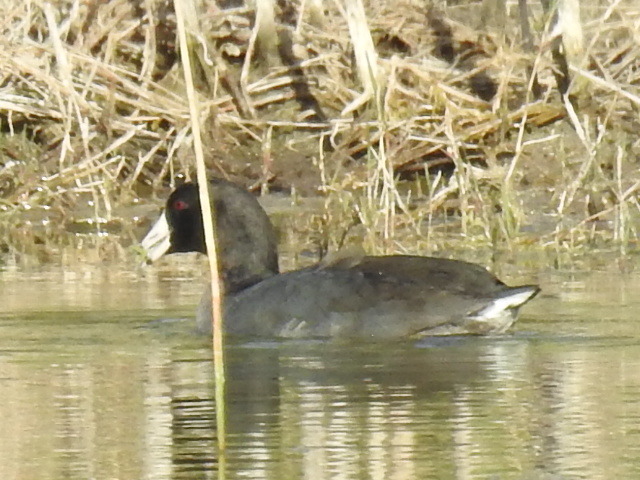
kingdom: Animalia
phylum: Chordata
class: Aves
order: Gruiformes
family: Rallidae
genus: Fulica
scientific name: Fulica americana
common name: American coot
